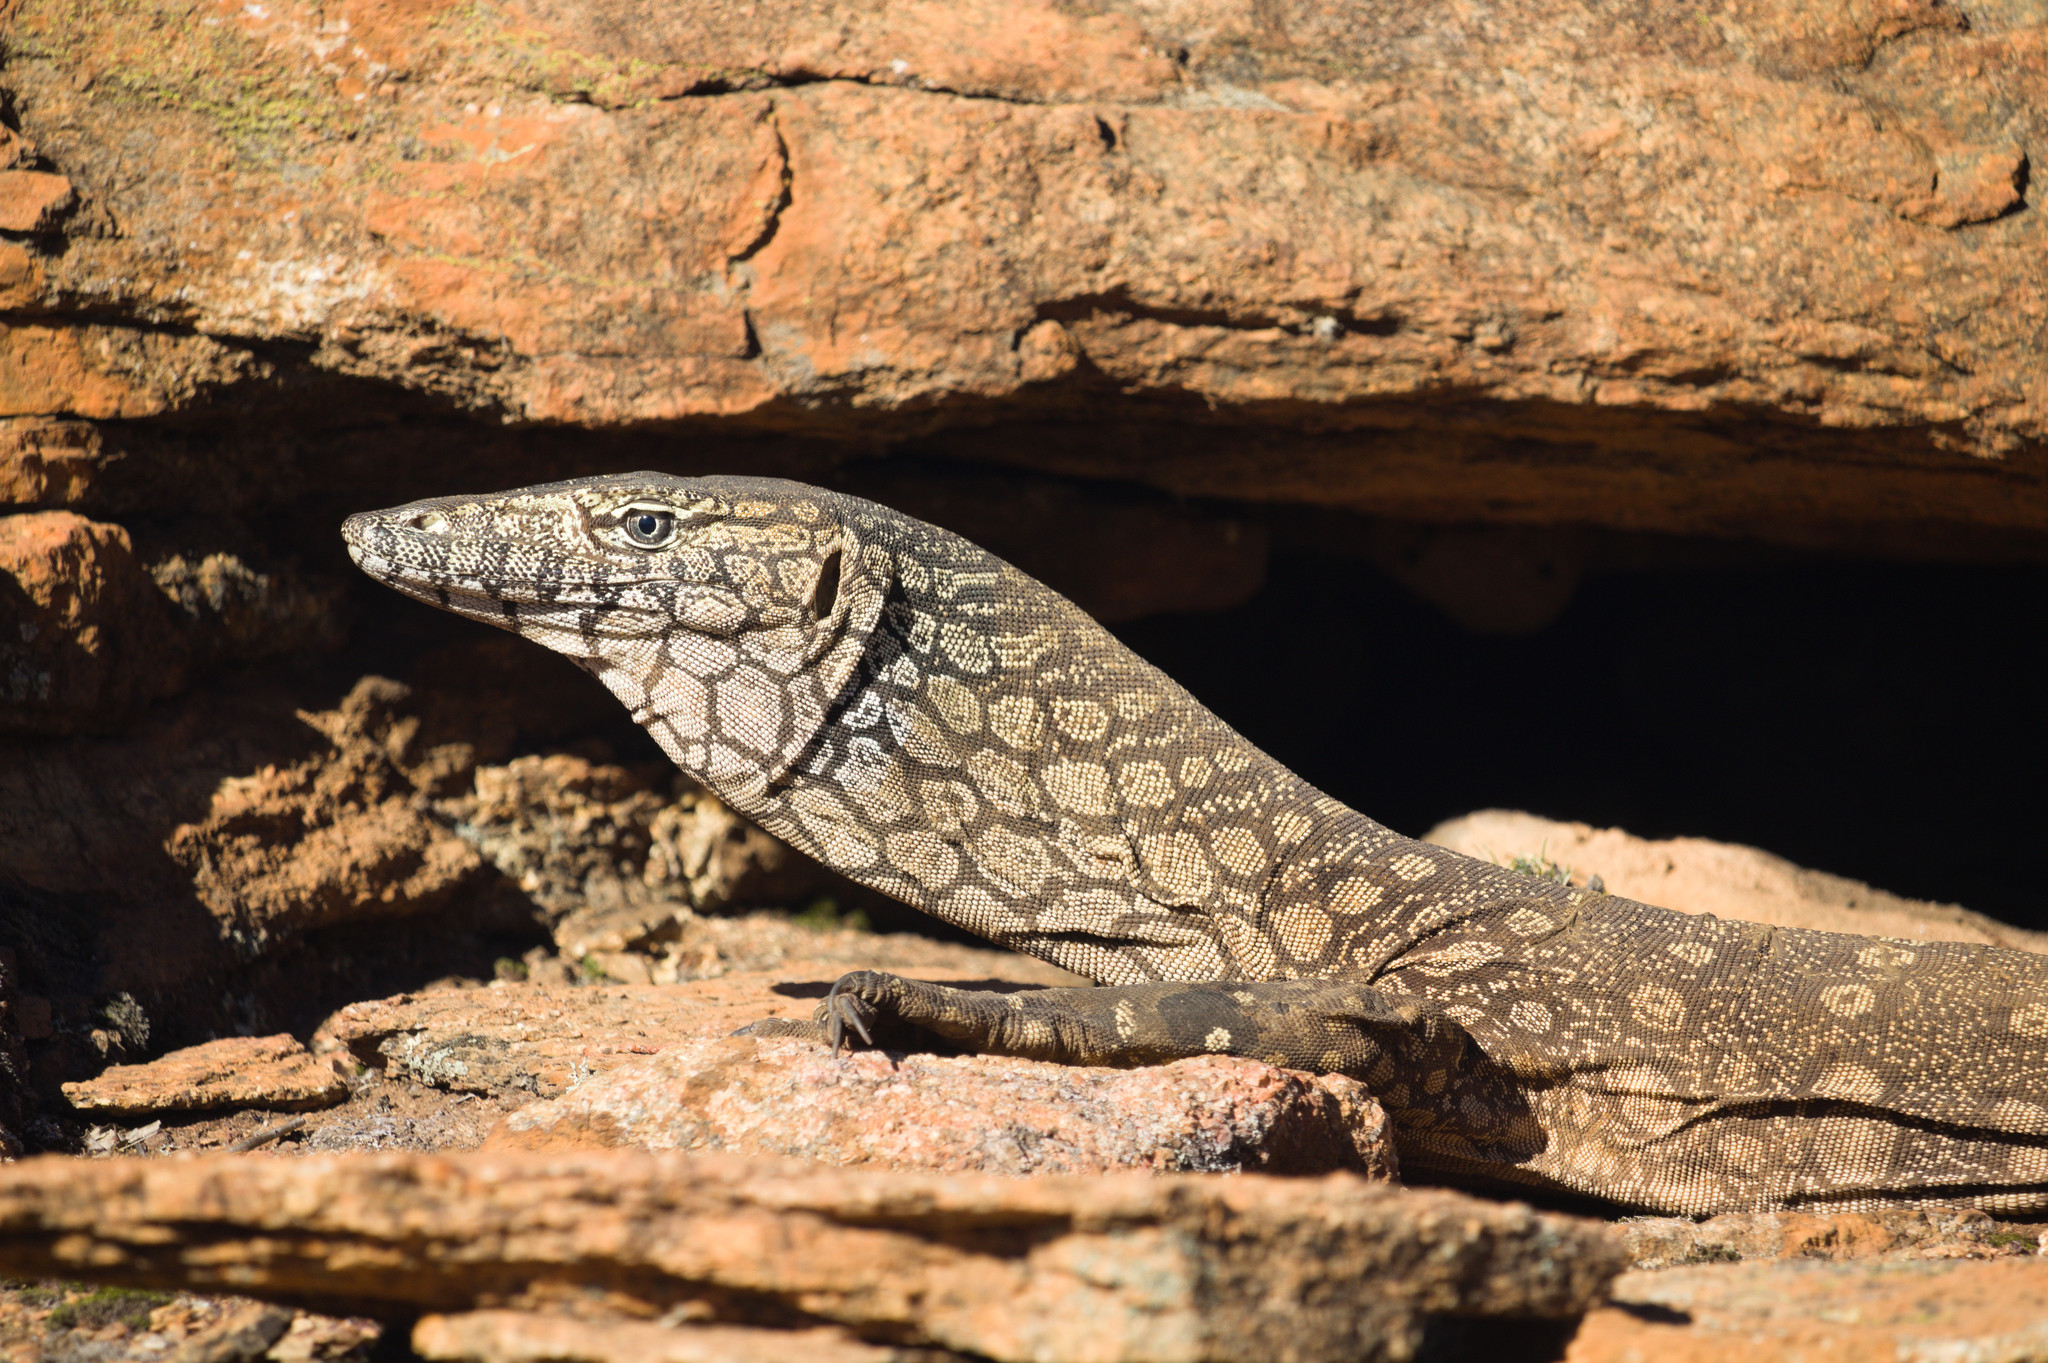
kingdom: Animalia
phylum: Chordata
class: Squamata
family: Varanidae
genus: Varanus
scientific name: Varanus giganteus
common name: Perentie
